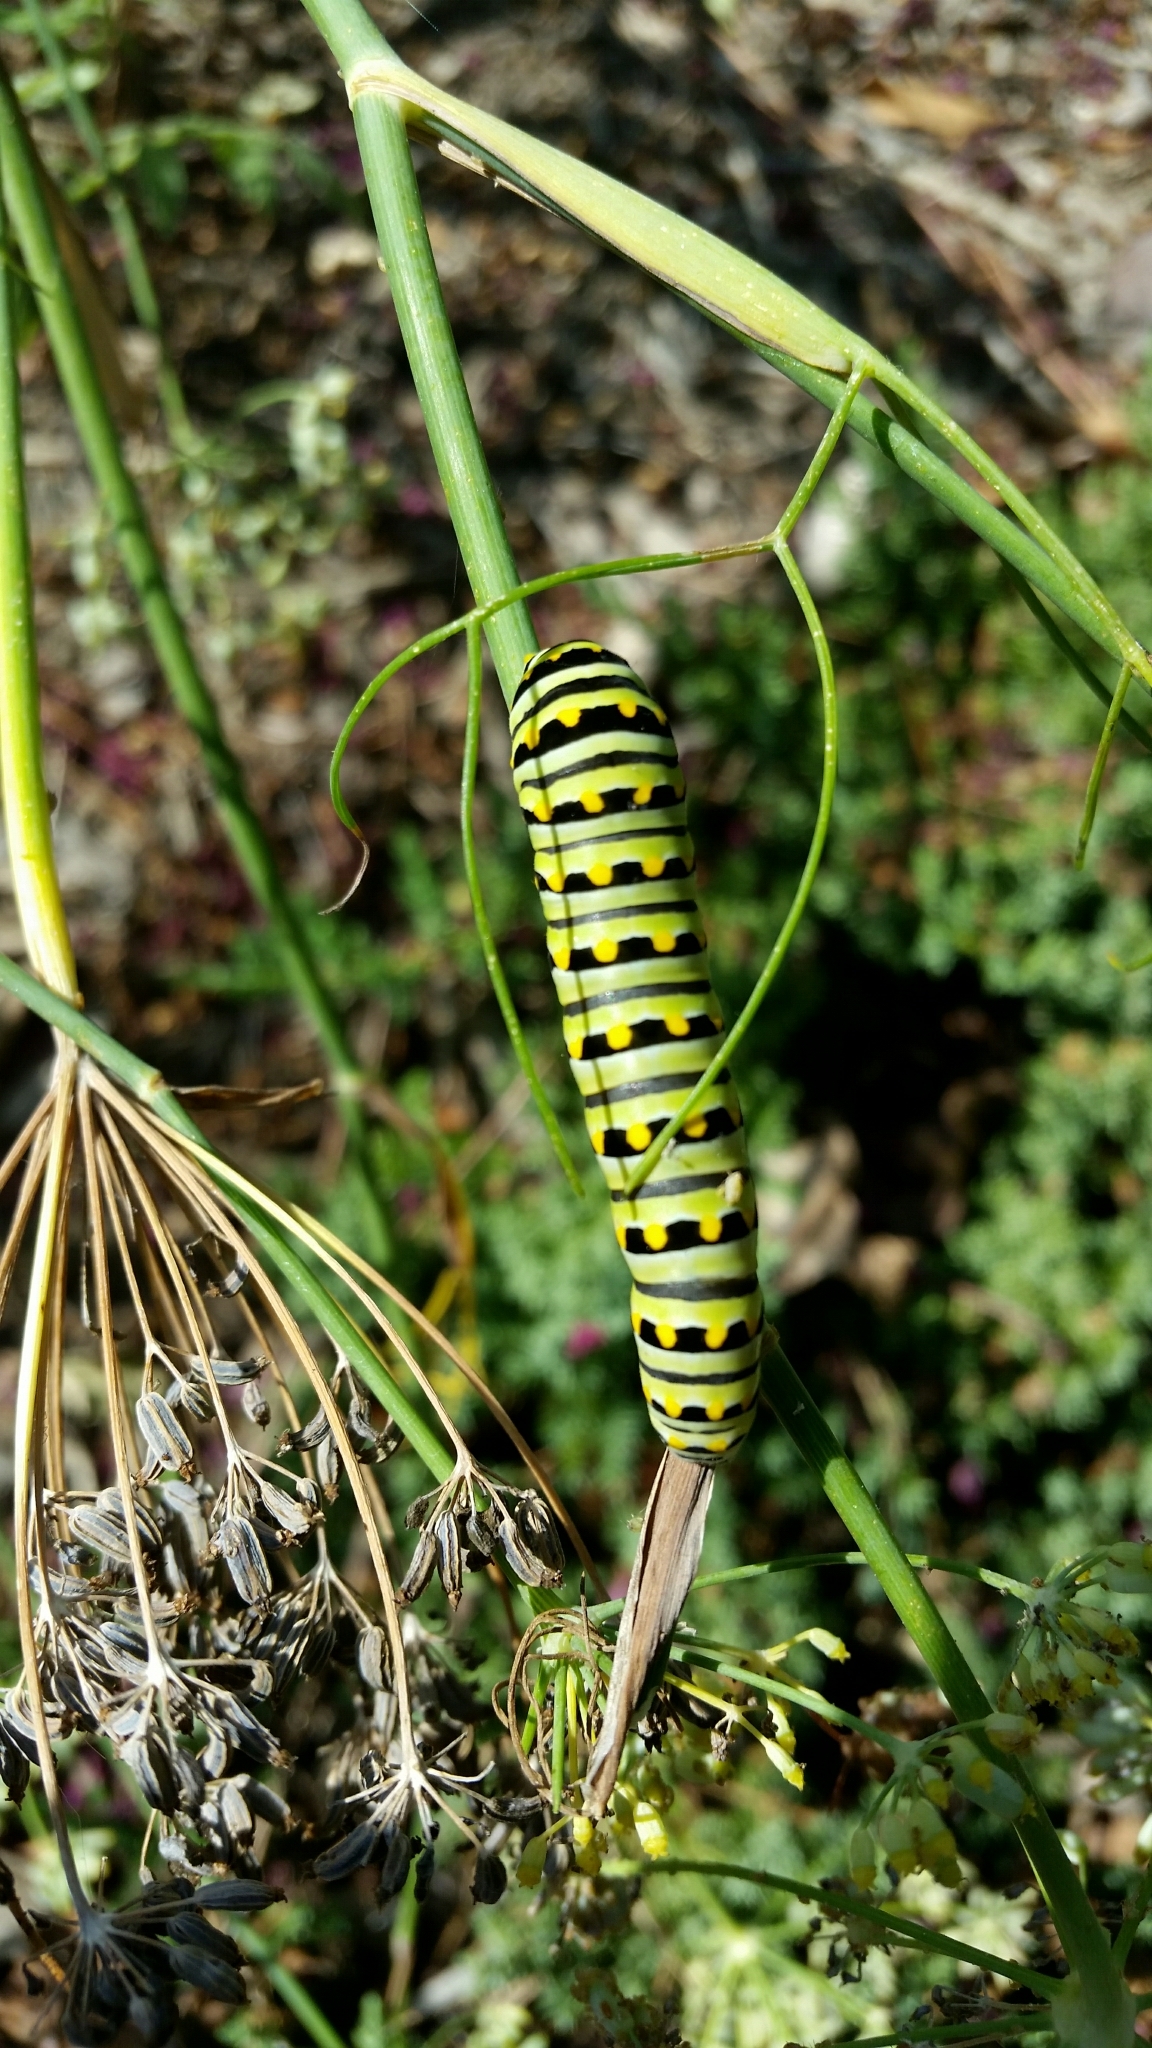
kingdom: Animalia
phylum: Arthropoda
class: Insecta
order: Lepidoptera
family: Papilionidae
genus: Papilio
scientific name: Papilio polyxenes
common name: Black swallowtail
